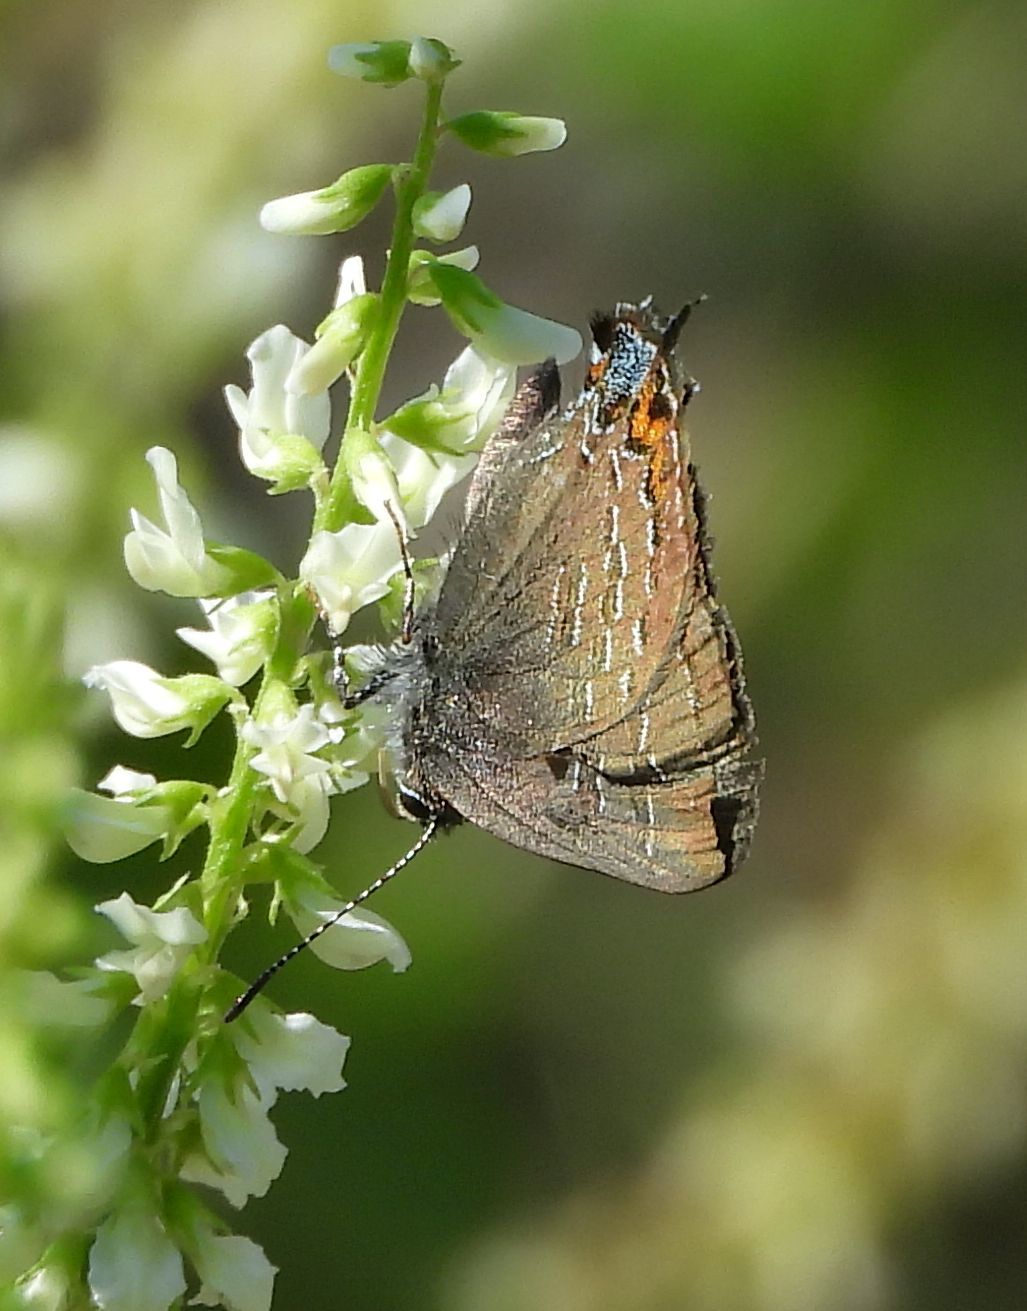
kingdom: Animalia
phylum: Arthropoda
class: Insecta
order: Lepidoptera
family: Lycaenidae
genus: Satyrium
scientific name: Satyrium calanus
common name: Banded hairstreak
